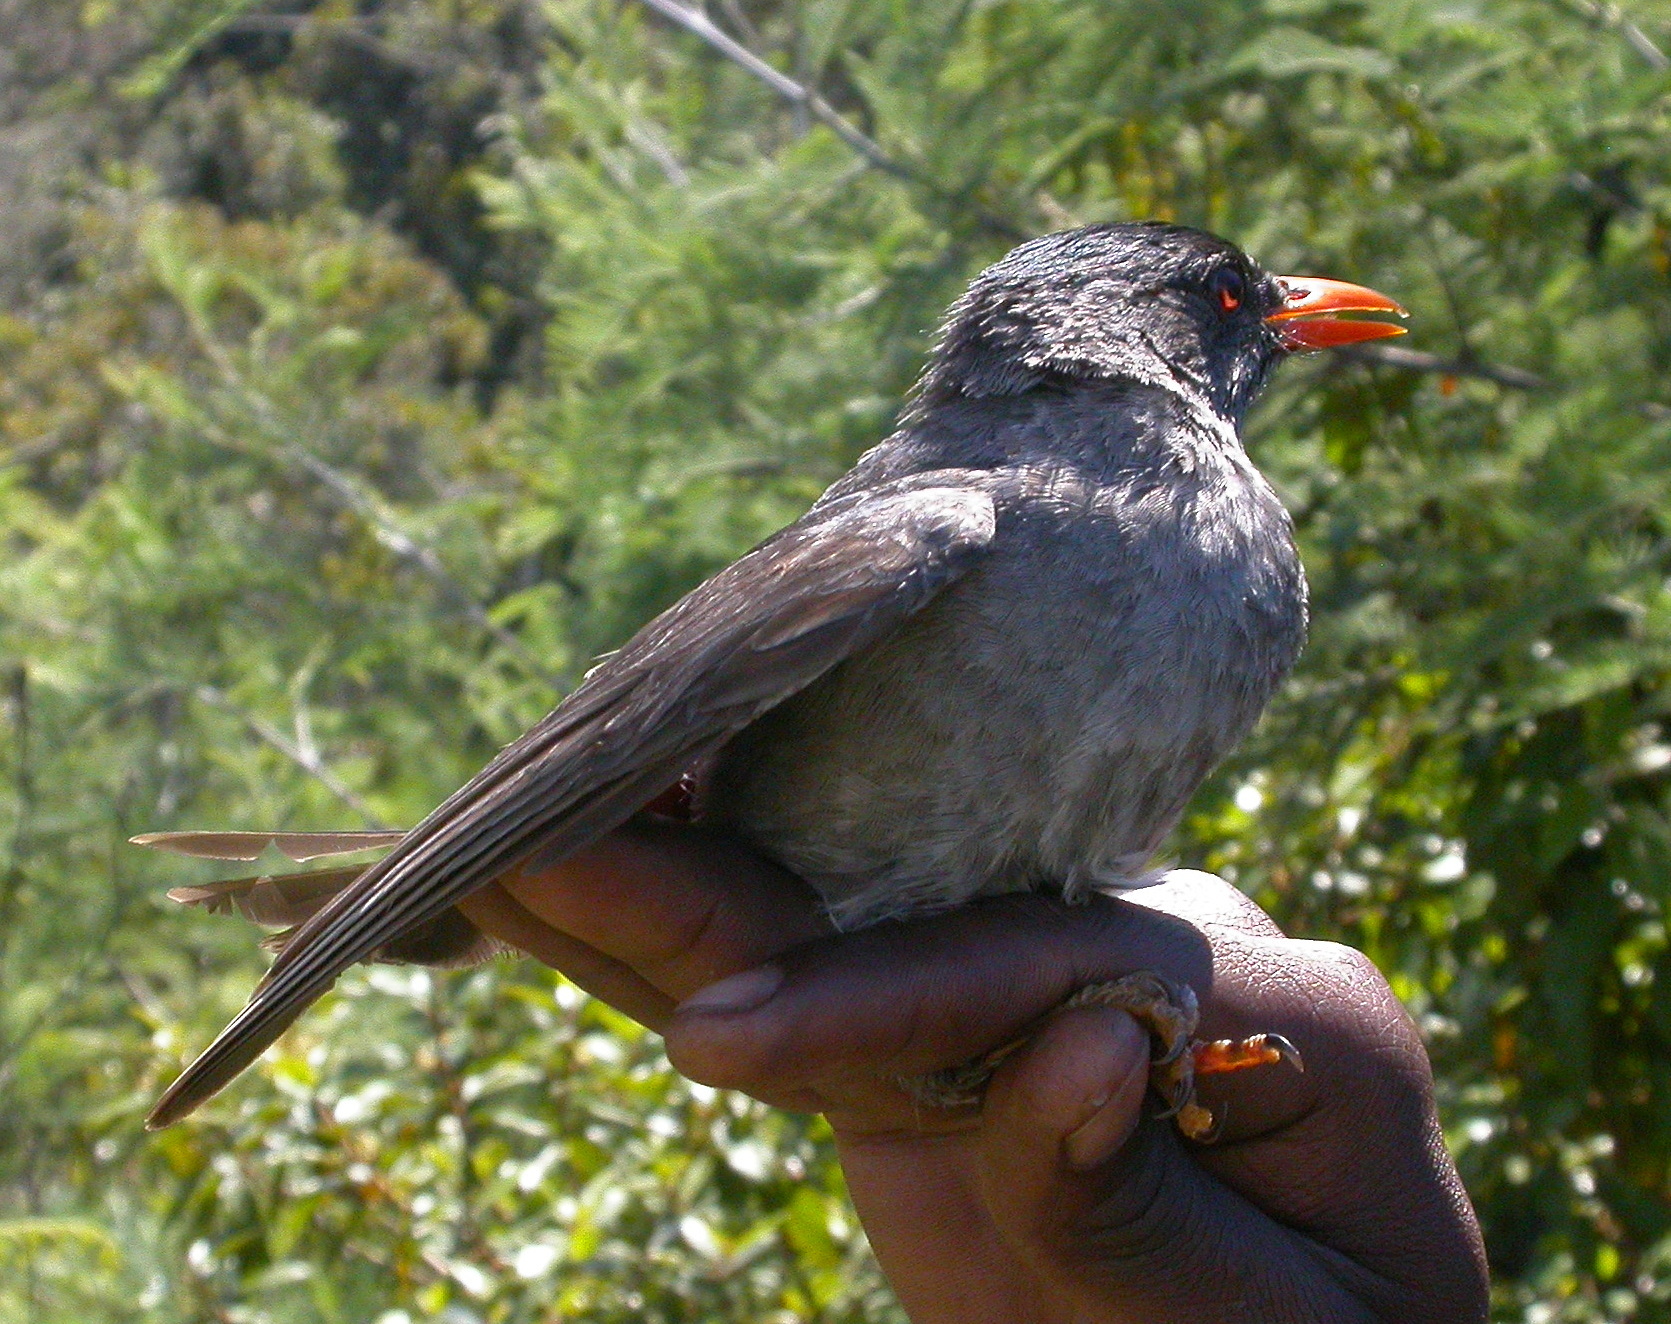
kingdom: Animalia
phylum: Chordata
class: Aves
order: Passeriformes
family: Pycnonotidae
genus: Hypsipetes
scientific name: Hypsipetes madagascariensis
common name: Malagasy bulbul
